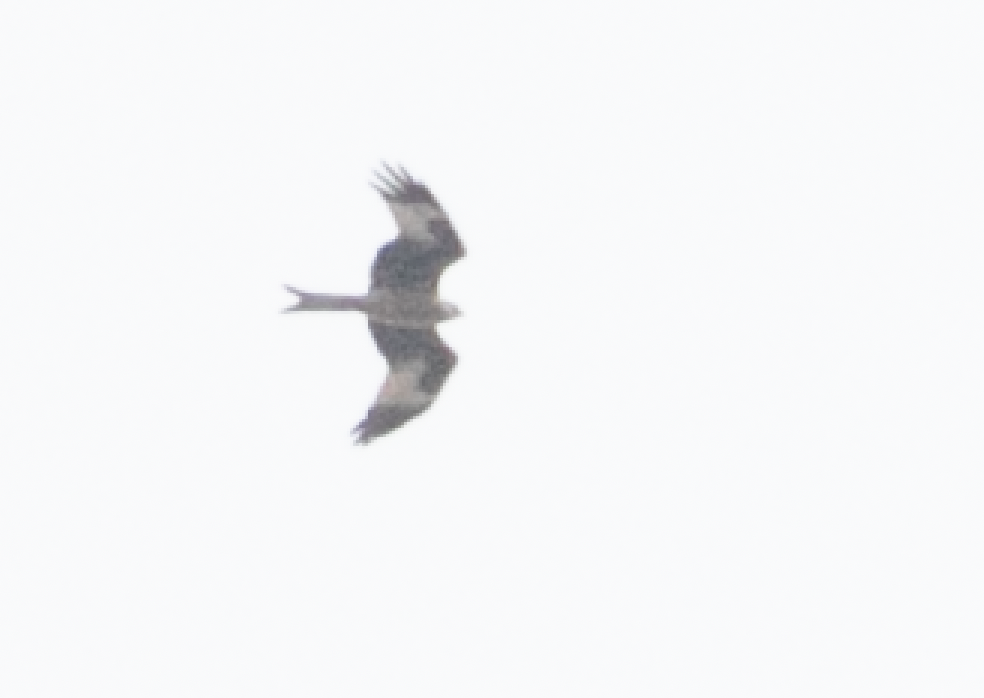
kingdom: Animalia
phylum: Chordata
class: Aves
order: Accipitriformes
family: Accipitridae
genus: Milvus
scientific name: Milvus milvus
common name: Red kite
